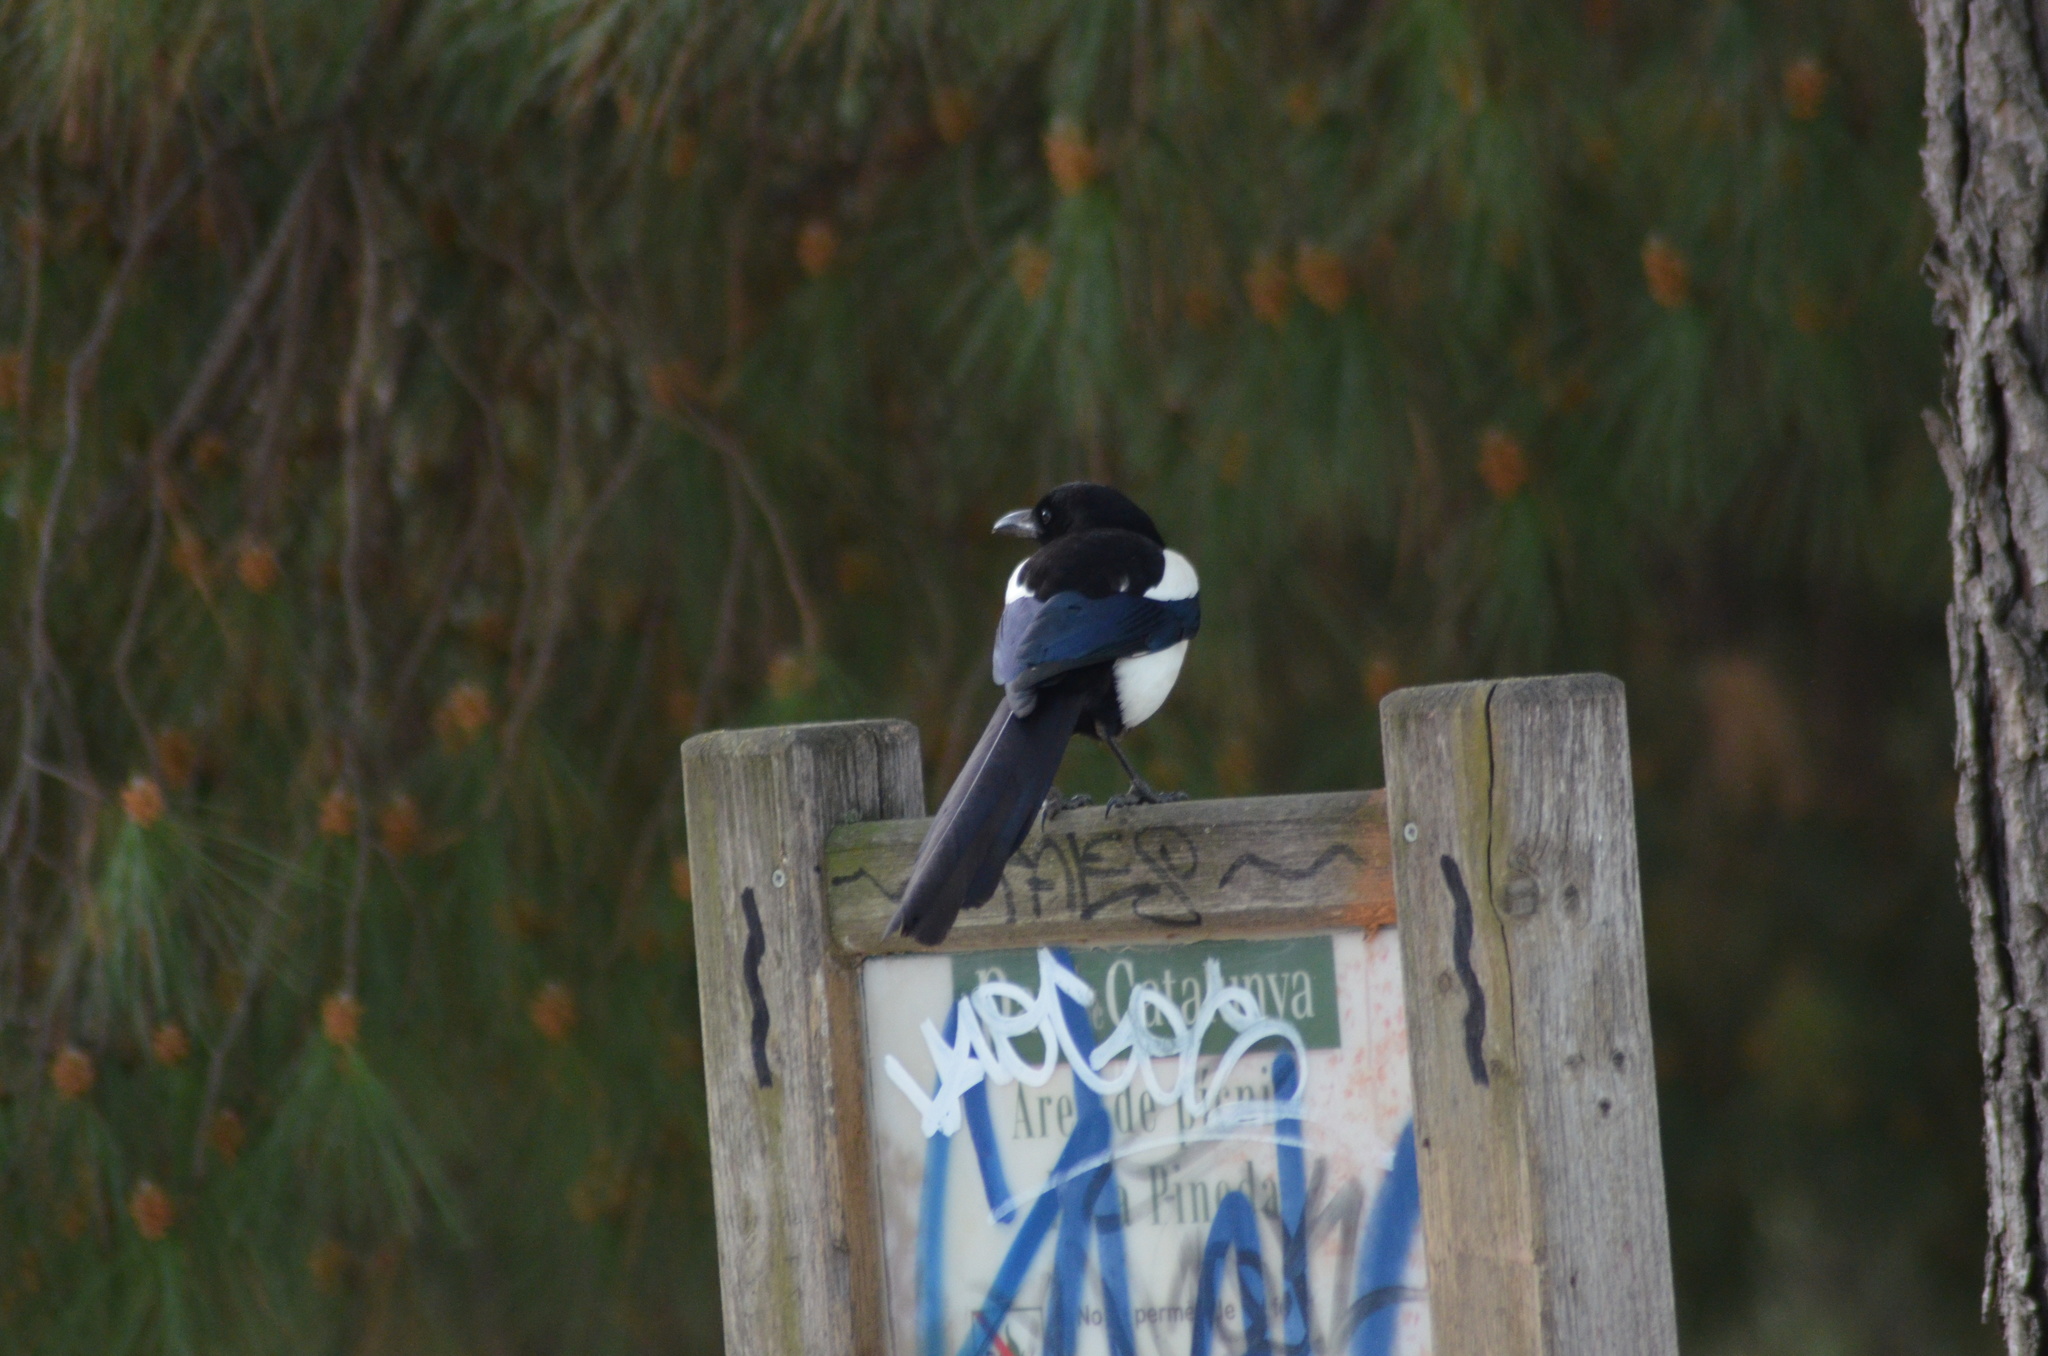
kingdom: Animalia
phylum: Chordata
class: Aves
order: Passeriformes
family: Corvidae
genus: Pica
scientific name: Pica pica
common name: Eurasian magpie
